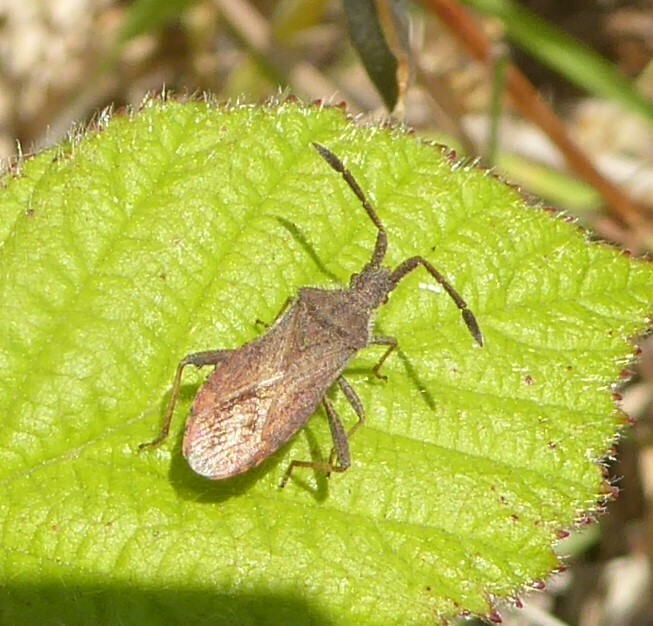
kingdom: Animalia
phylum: Arthropoda
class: Insecta
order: Hemiptera
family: Coreidae
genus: Coriomeris
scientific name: Coriomeris denticulatus
